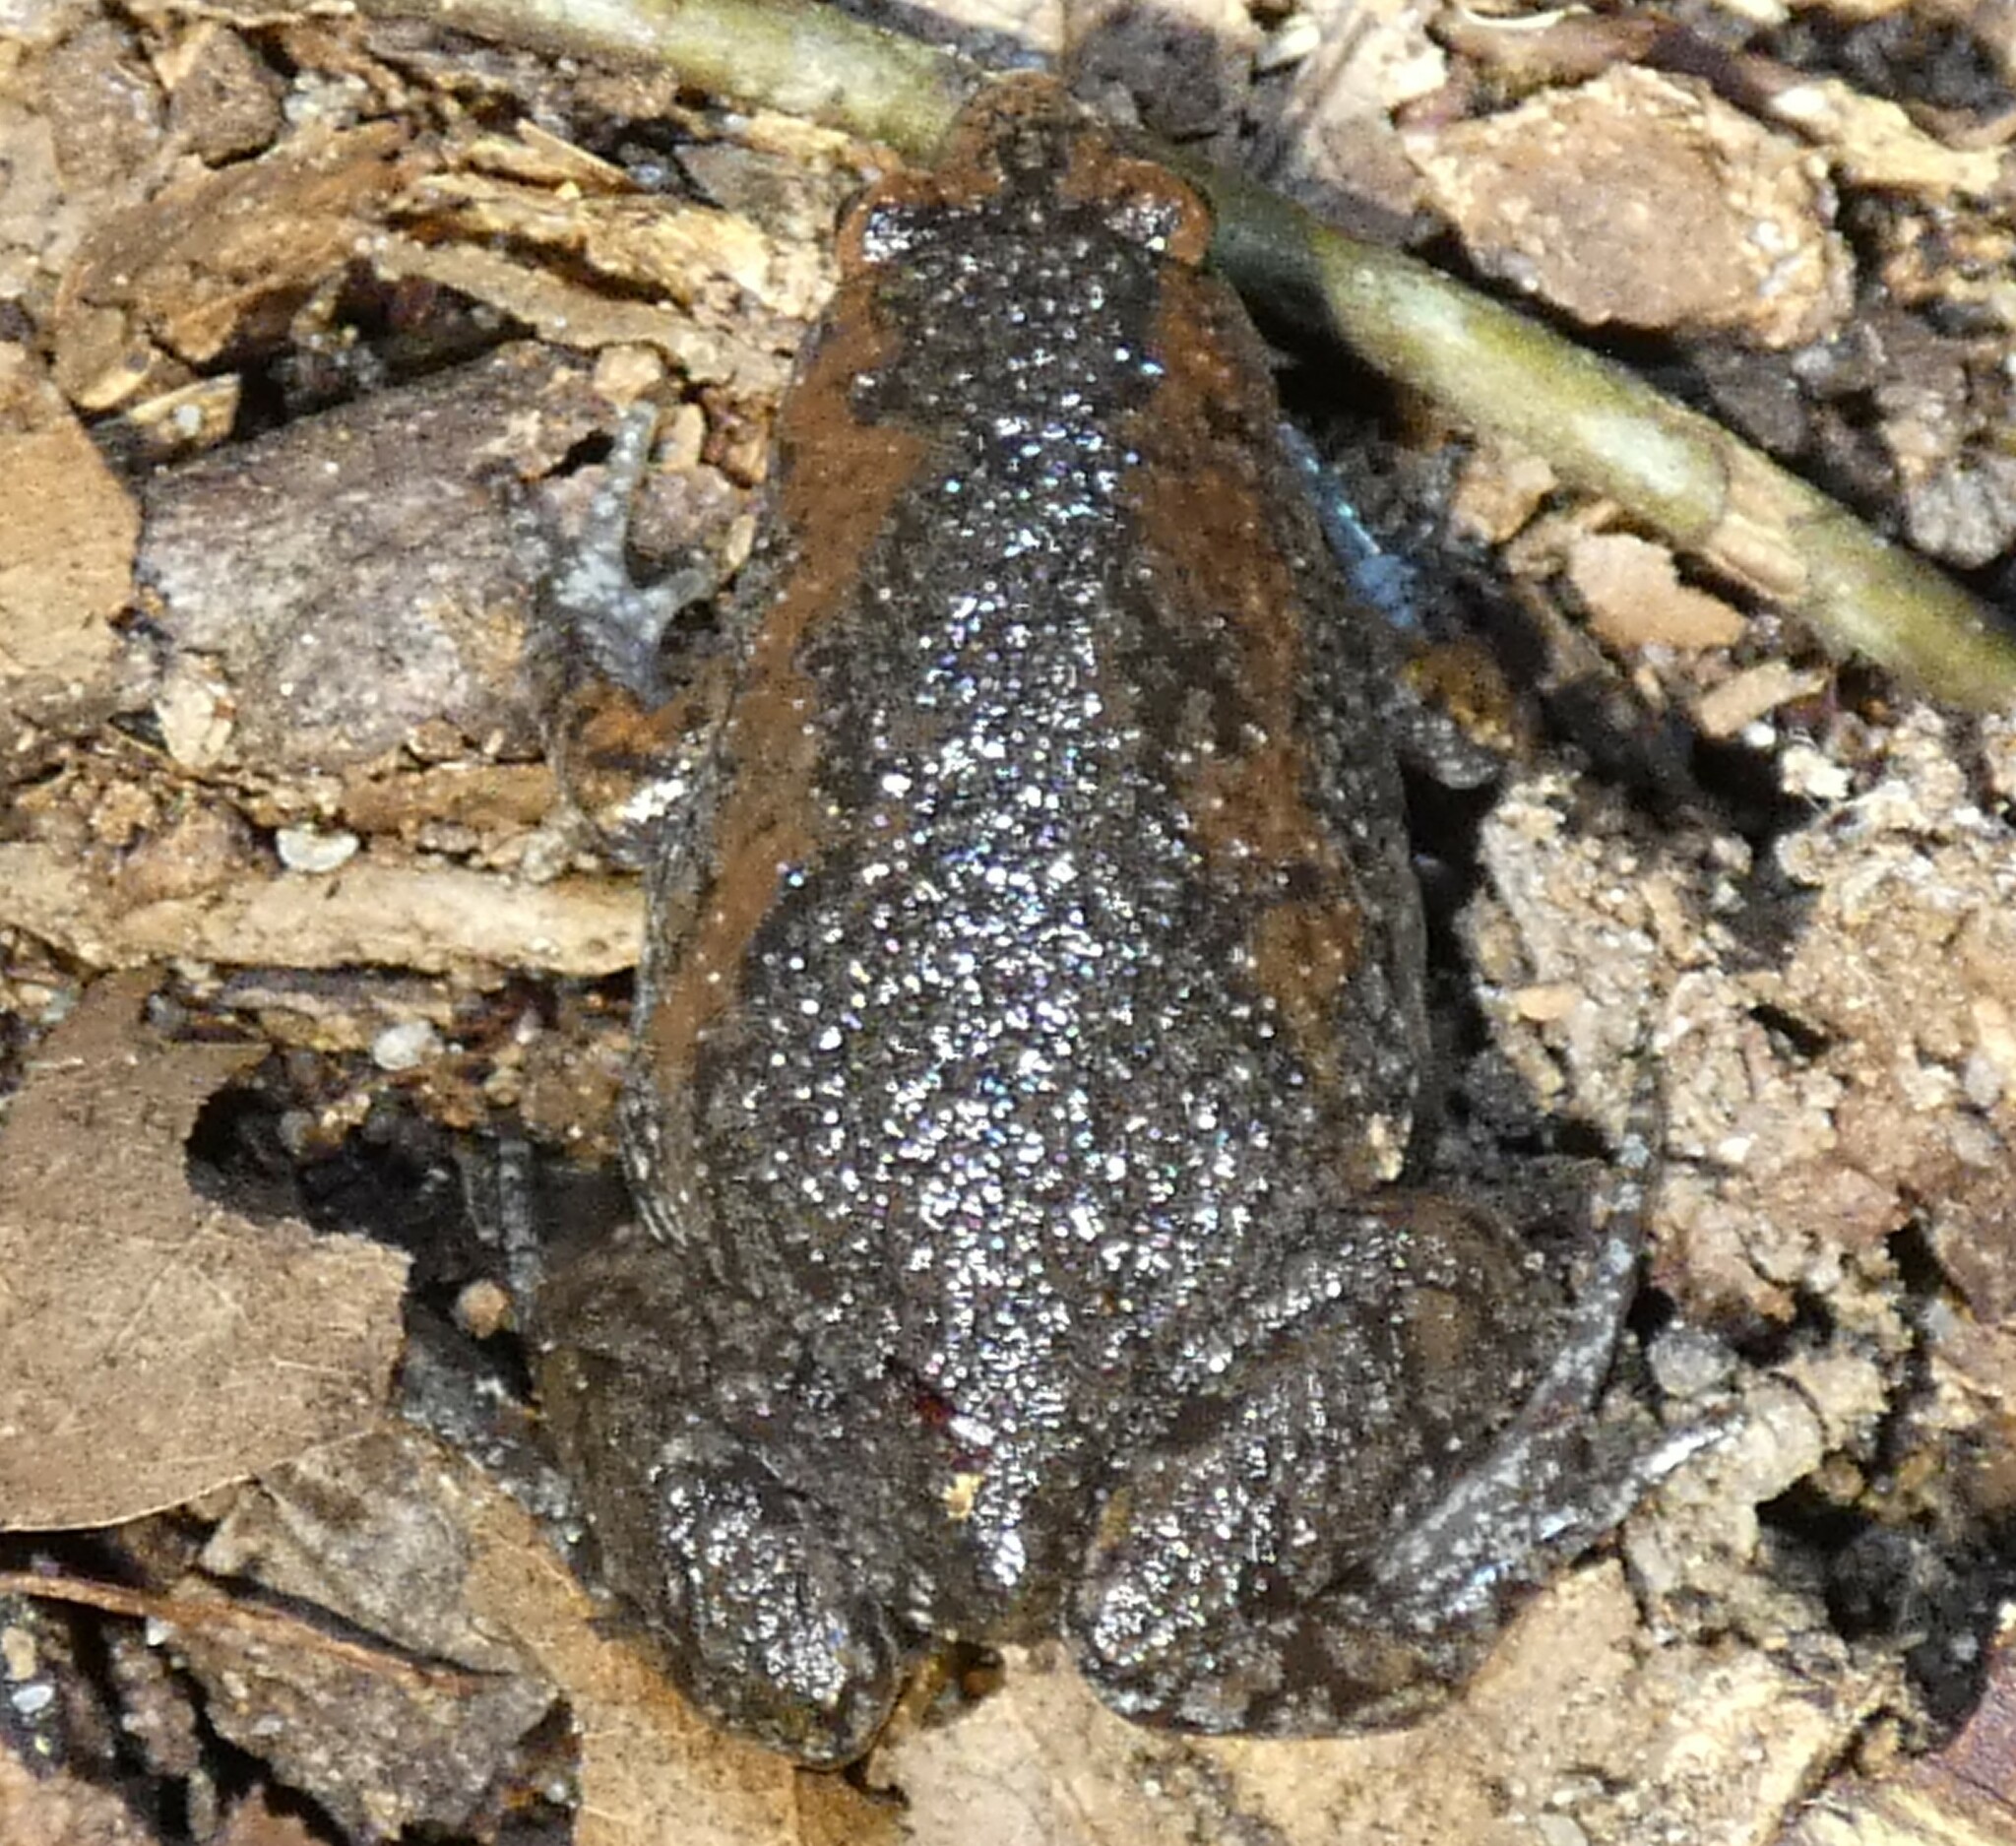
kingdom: Animalia
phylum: Chordata
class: Amphibia
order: Anura
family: Microhylidae
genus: Gastrophryne
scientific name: Gastrophryne carolinensis
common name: Eastern narrowmouth toad
